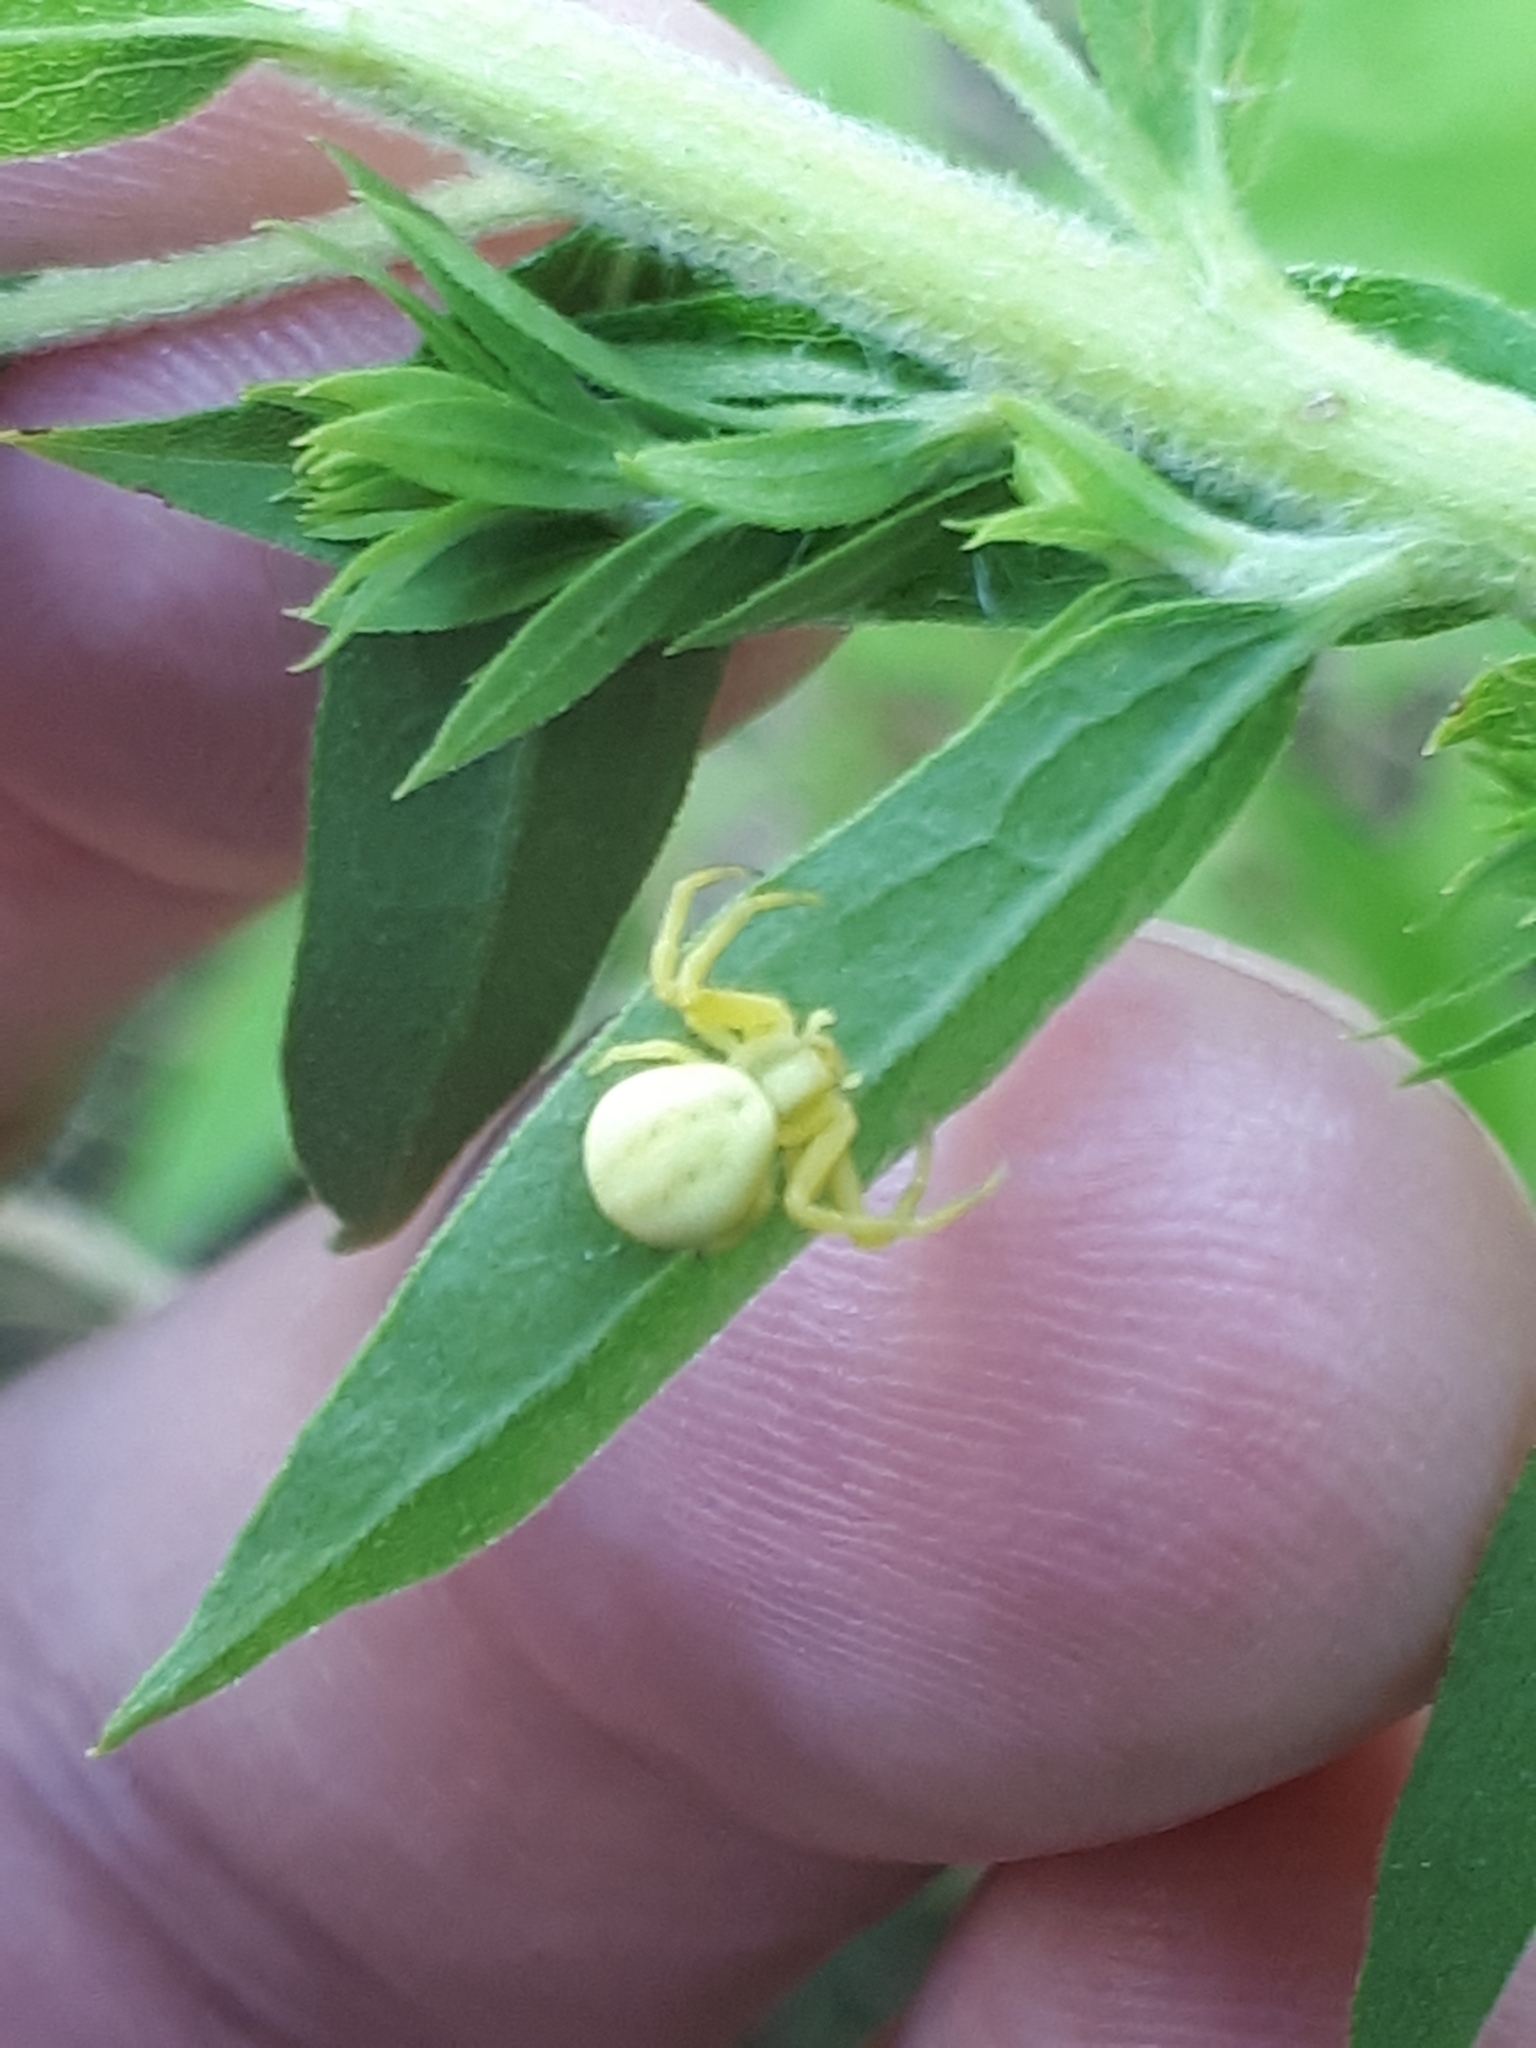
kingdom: Animalia
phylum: Arthropoda
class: Arachnida
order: Araneae
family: Thomisidae
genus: Misumena
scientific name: Misumena vatia
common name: Goldenrod crab spider
